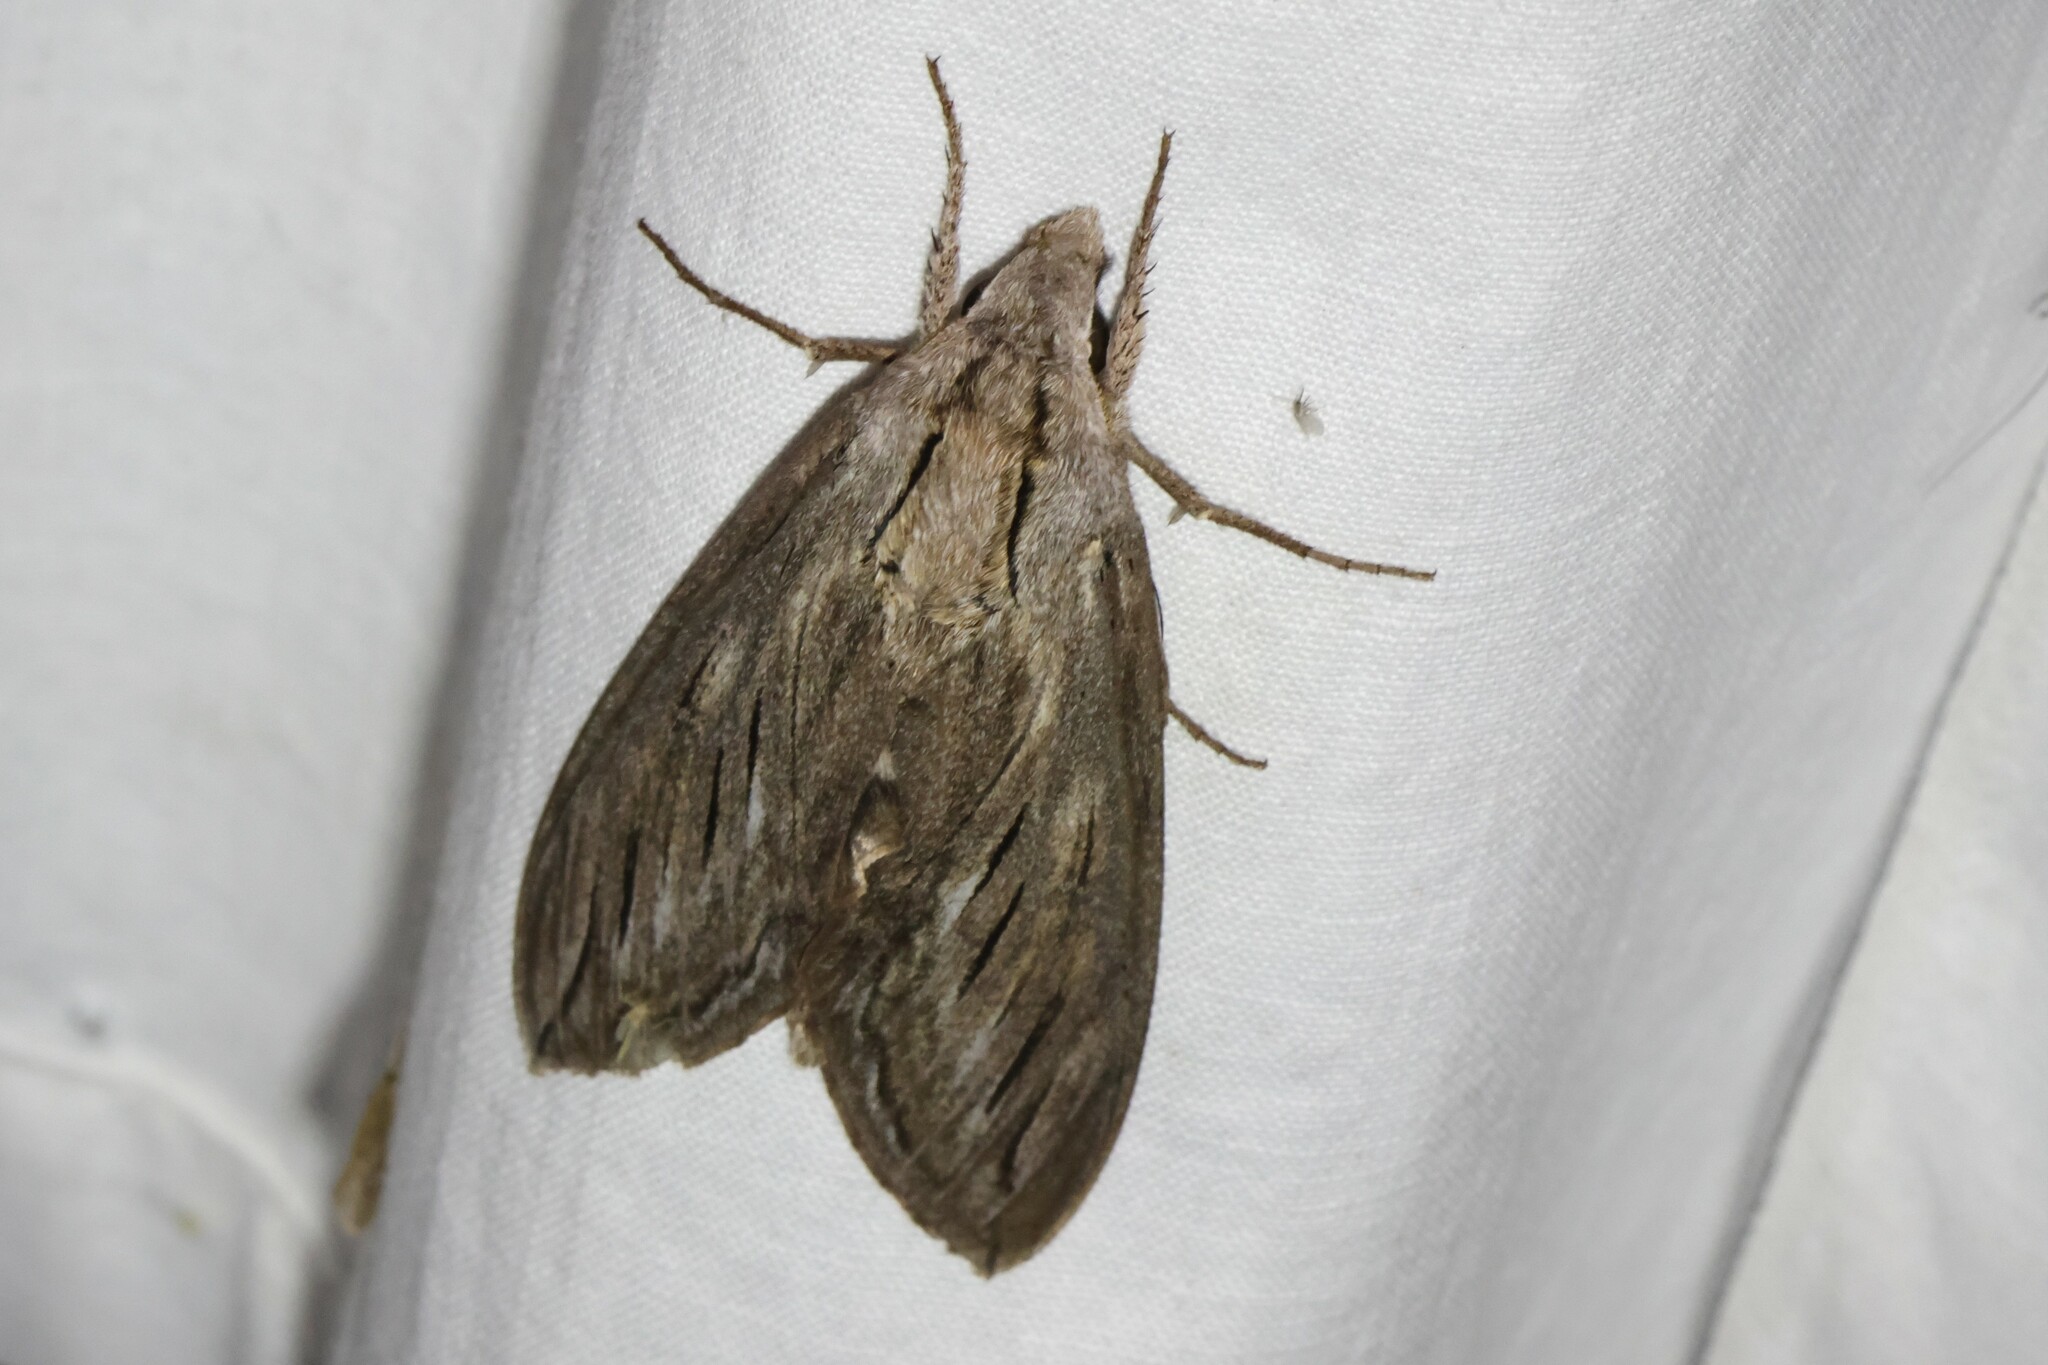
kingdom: Animalia
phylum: Arthropoda
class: Insecta
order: Lepidoptera
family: Sphingidae
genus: Sphinx
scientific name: Sphinx chersis
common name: Great ash sphinx
